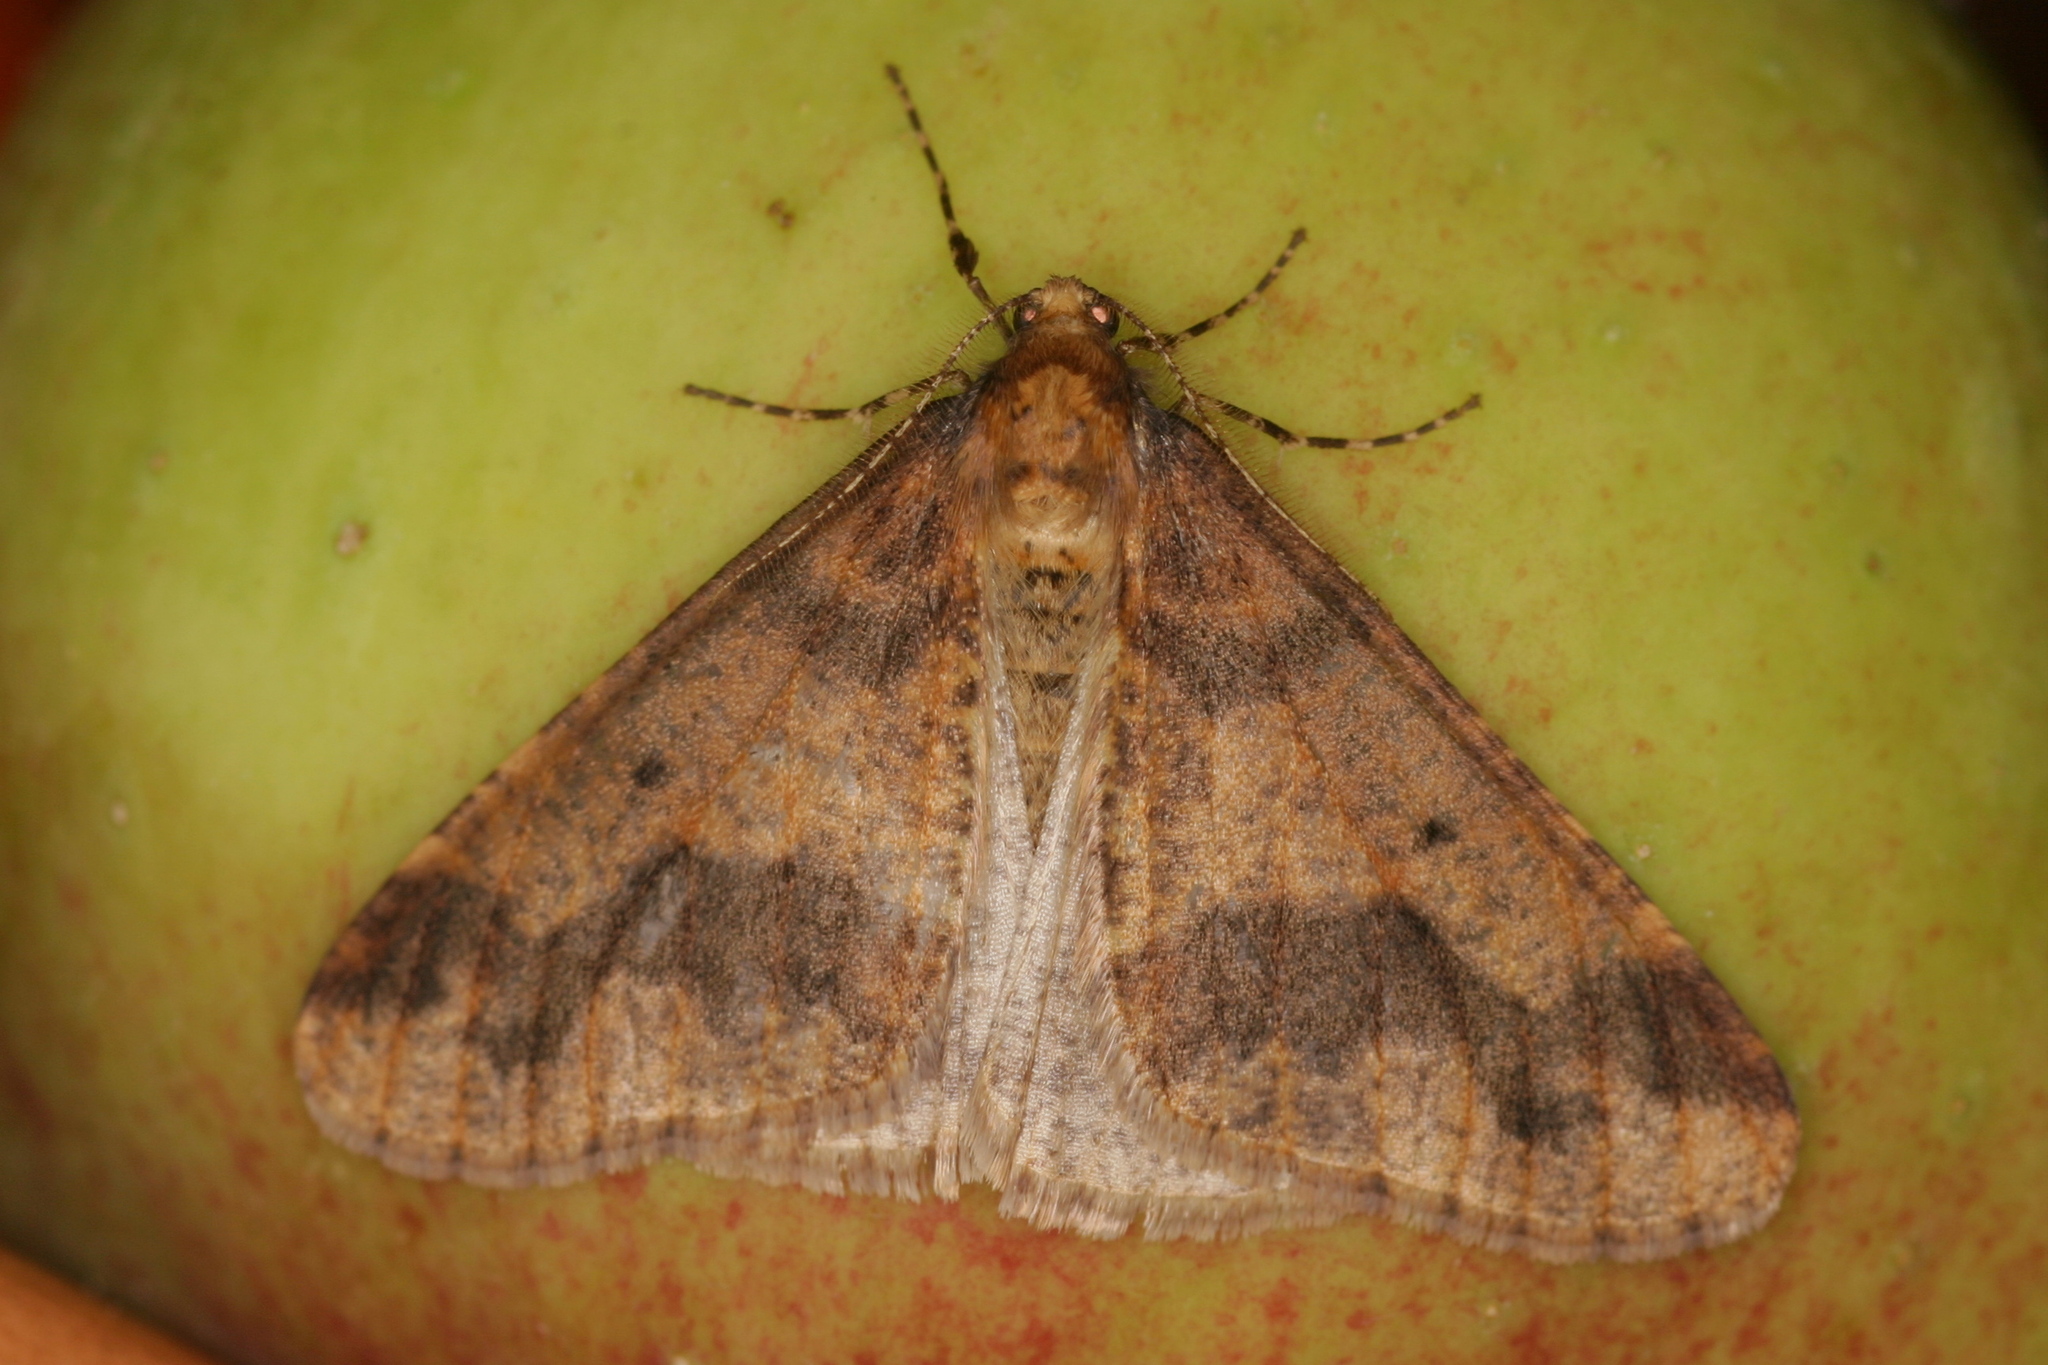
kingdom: Animalia
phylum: Arthropoda
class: Insecta
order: Lepidoptera
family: Geometridae
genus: Erannis
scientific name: Erannis defoliaria
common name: Mottled umber
